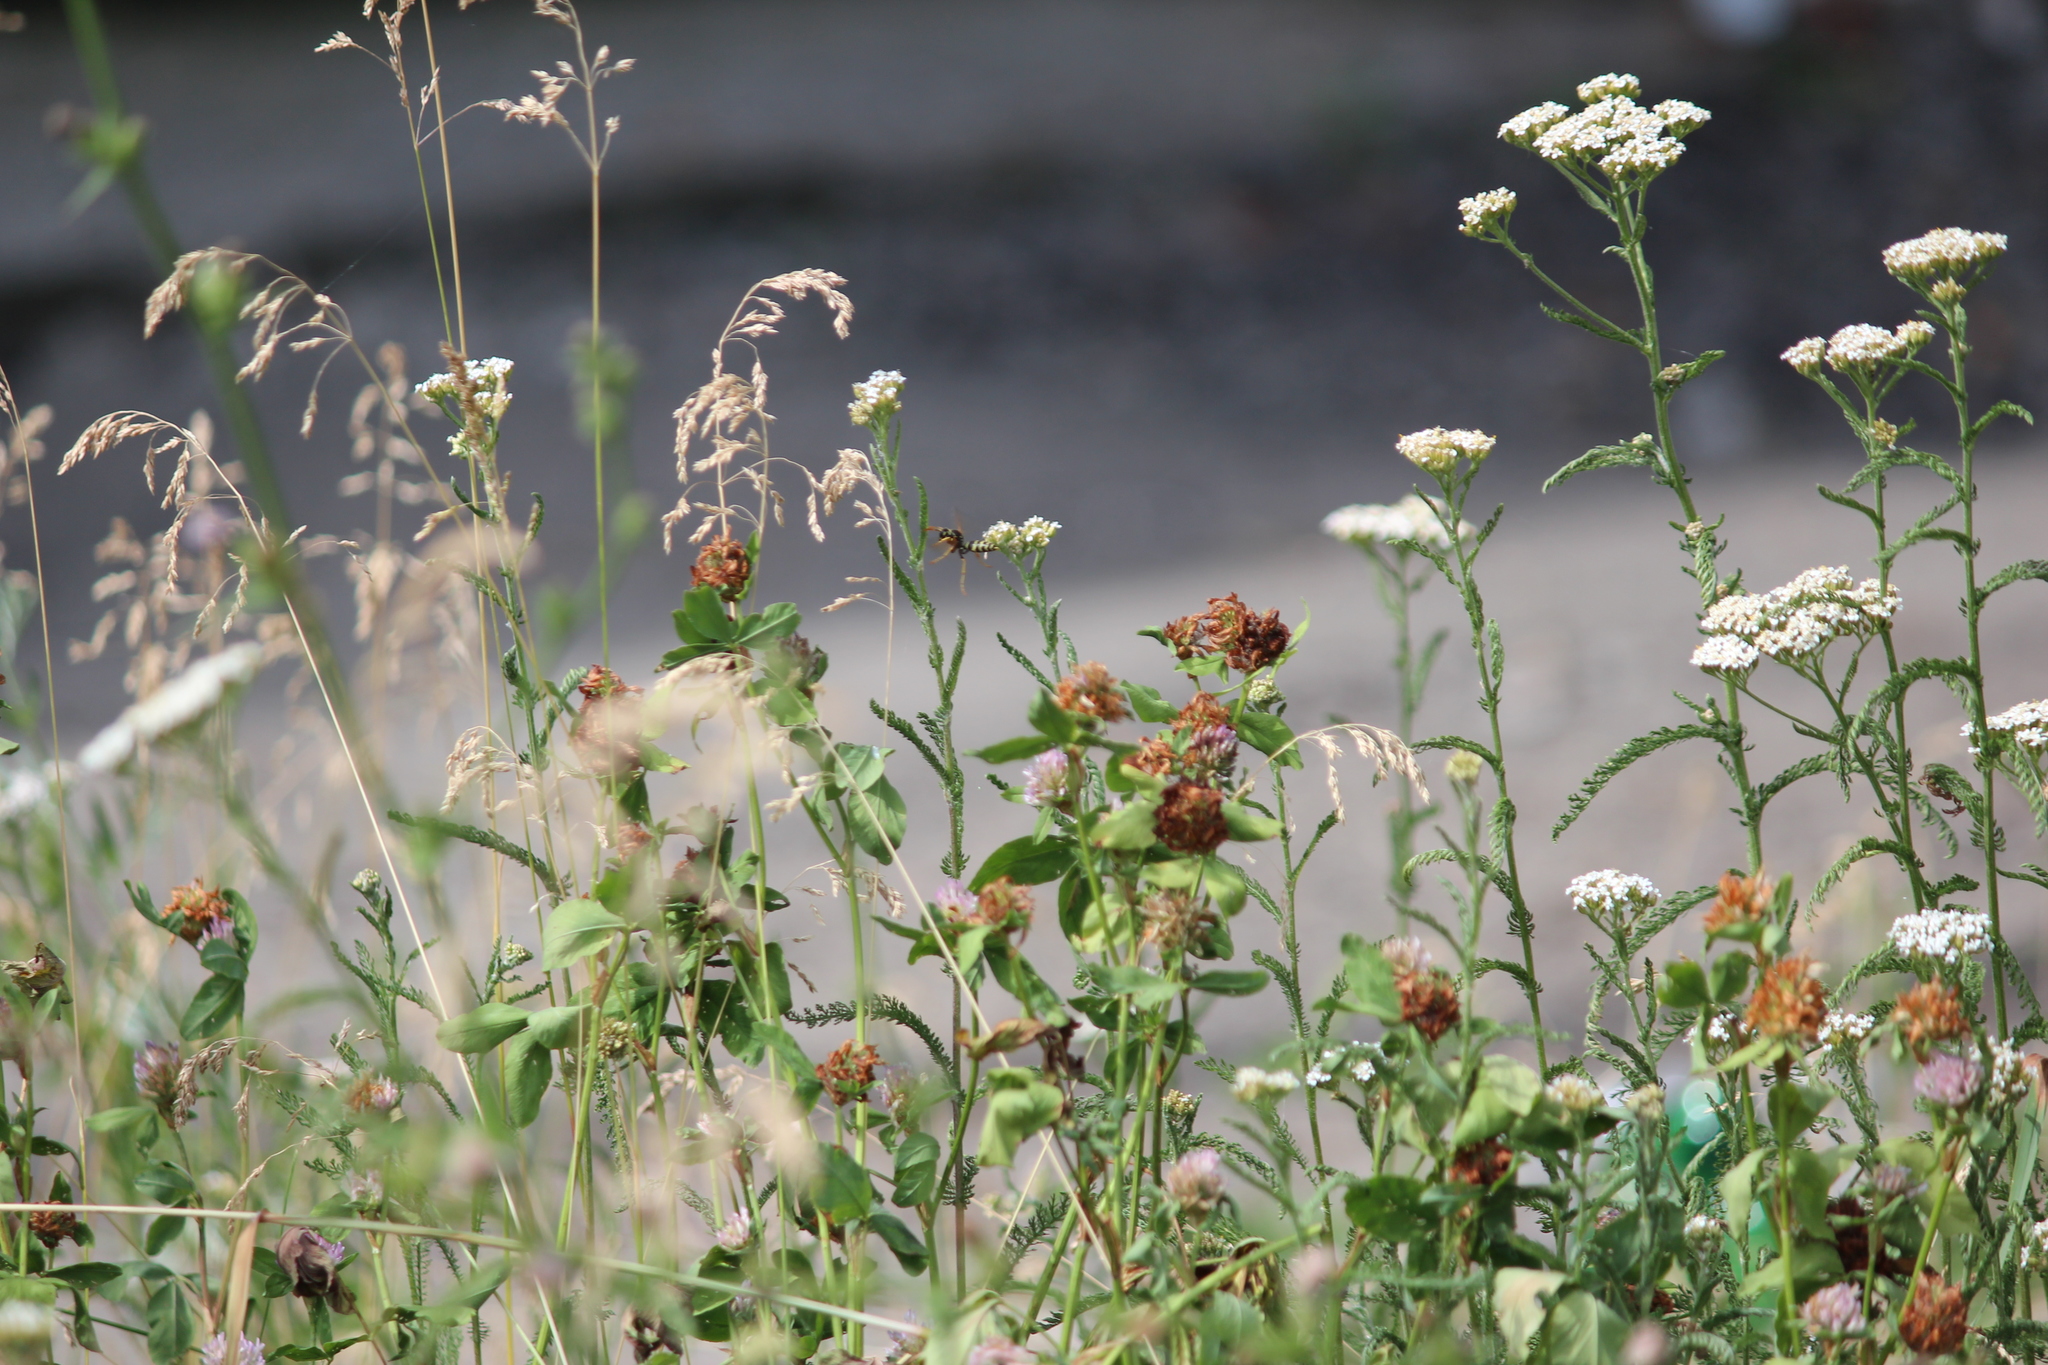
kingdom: Animalia
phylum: Arthropoda
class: Insecta
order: Hymenoptera
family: Eumenidae
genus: Polistes
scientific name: Polistes dominula
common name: Paper wasp
